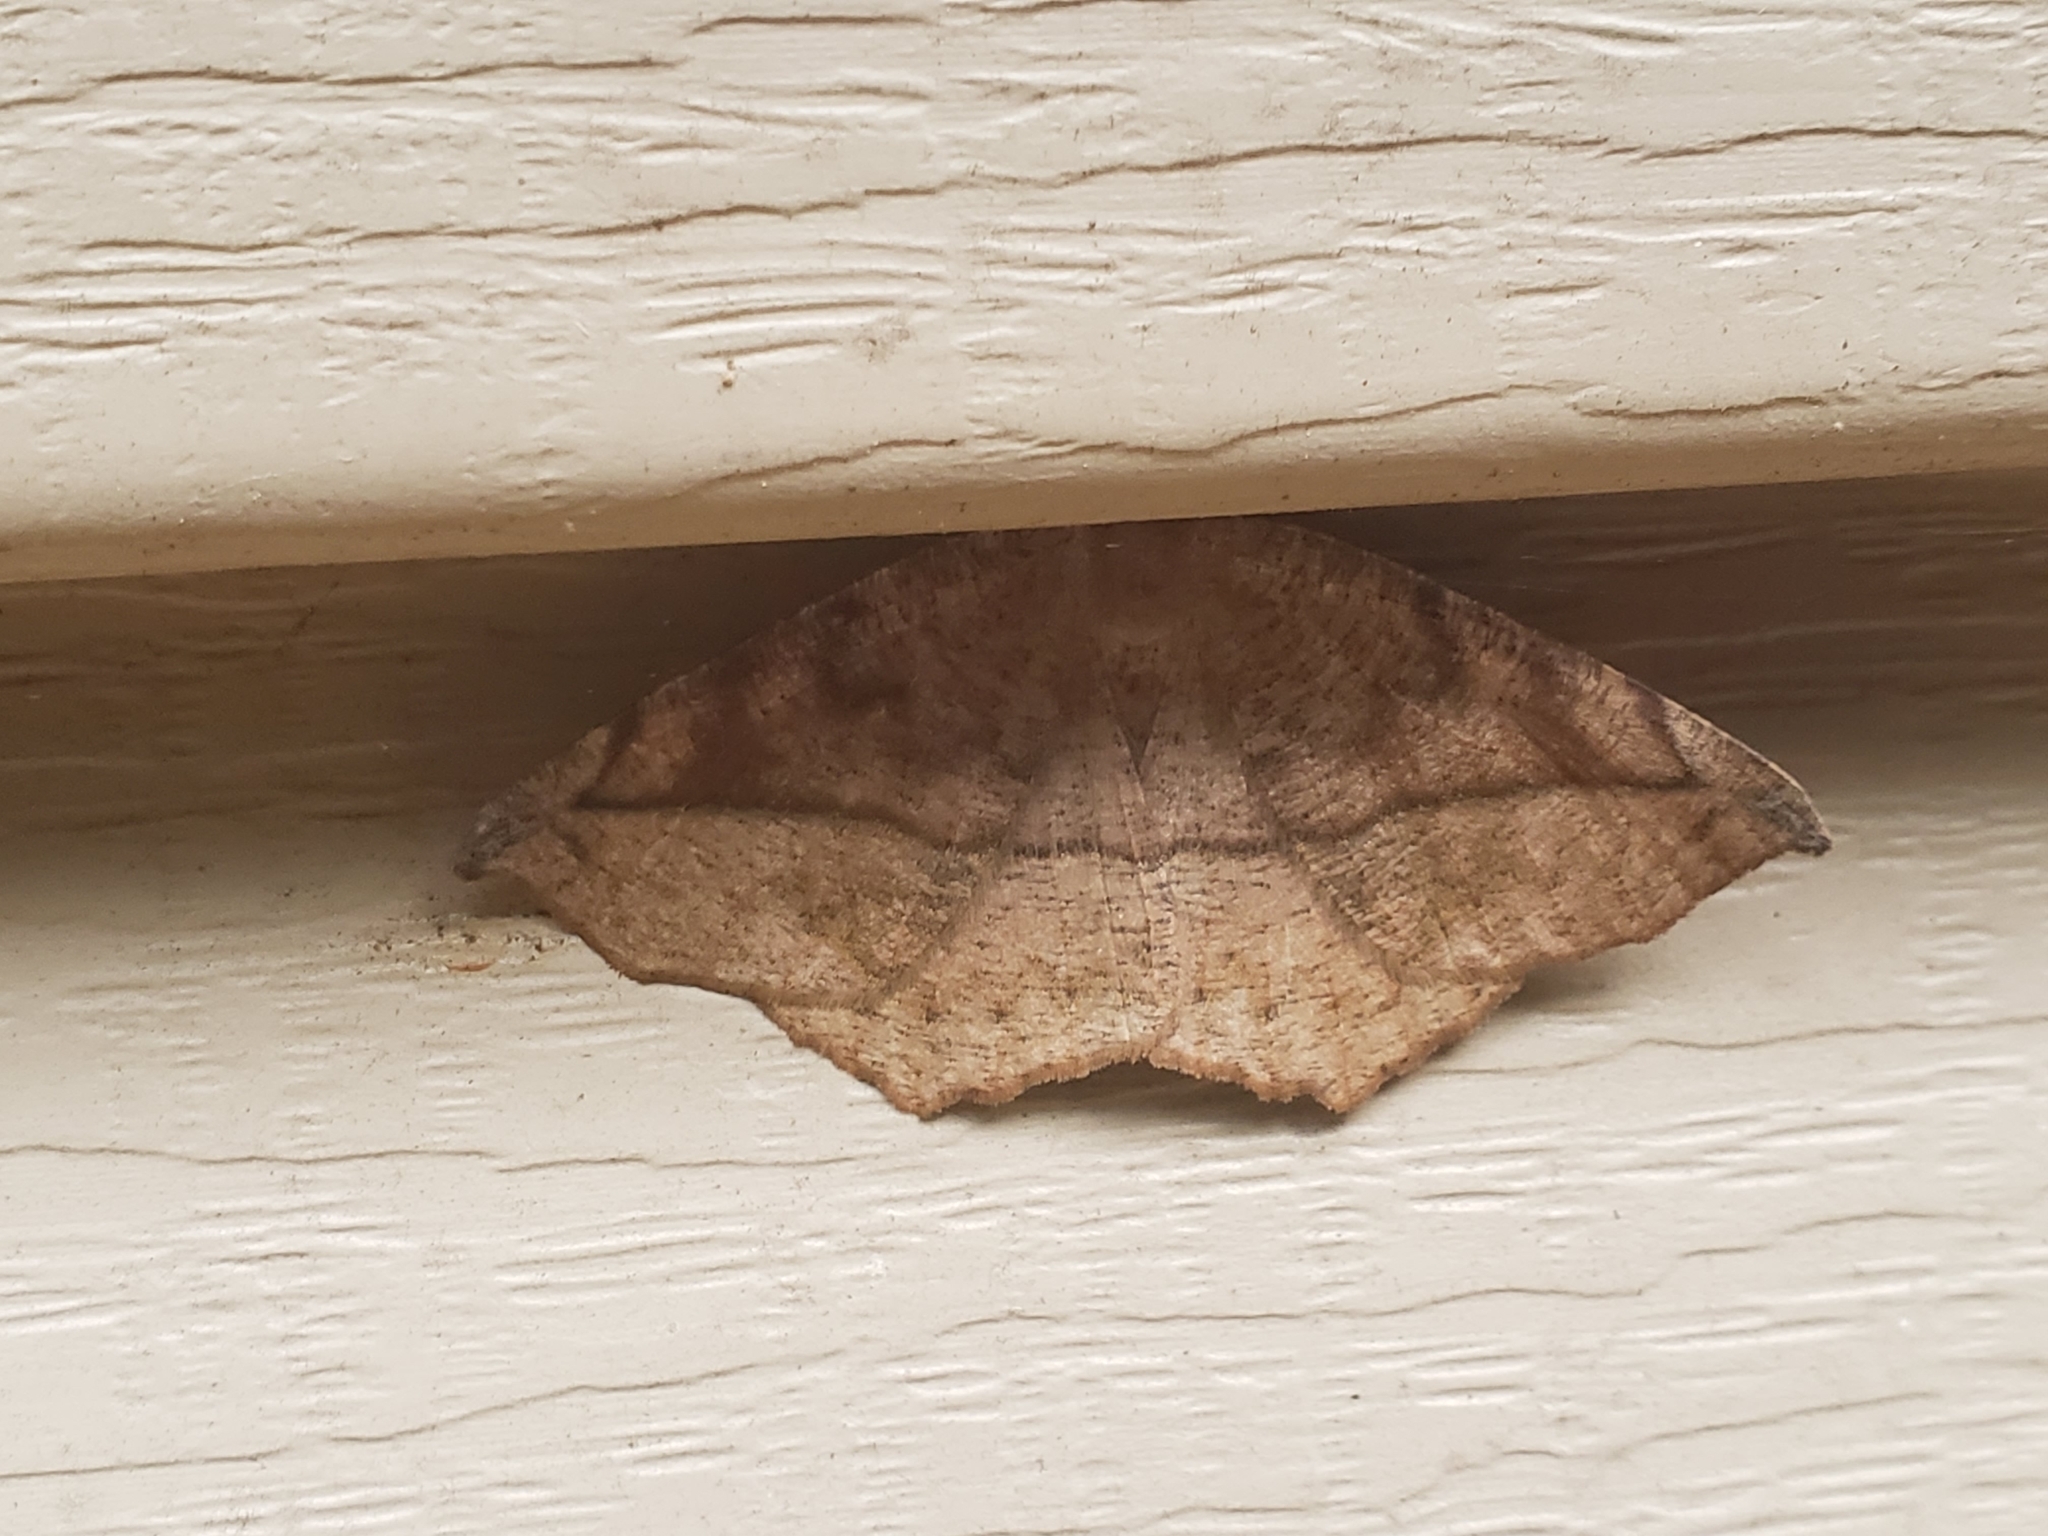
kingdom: Animalia
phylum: Arthropoda
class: Insecta
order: Lepidoptera
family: Geometridae
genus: Eutrapela
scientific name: Eutrapela clemataria
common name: Curved-toothed geometer
